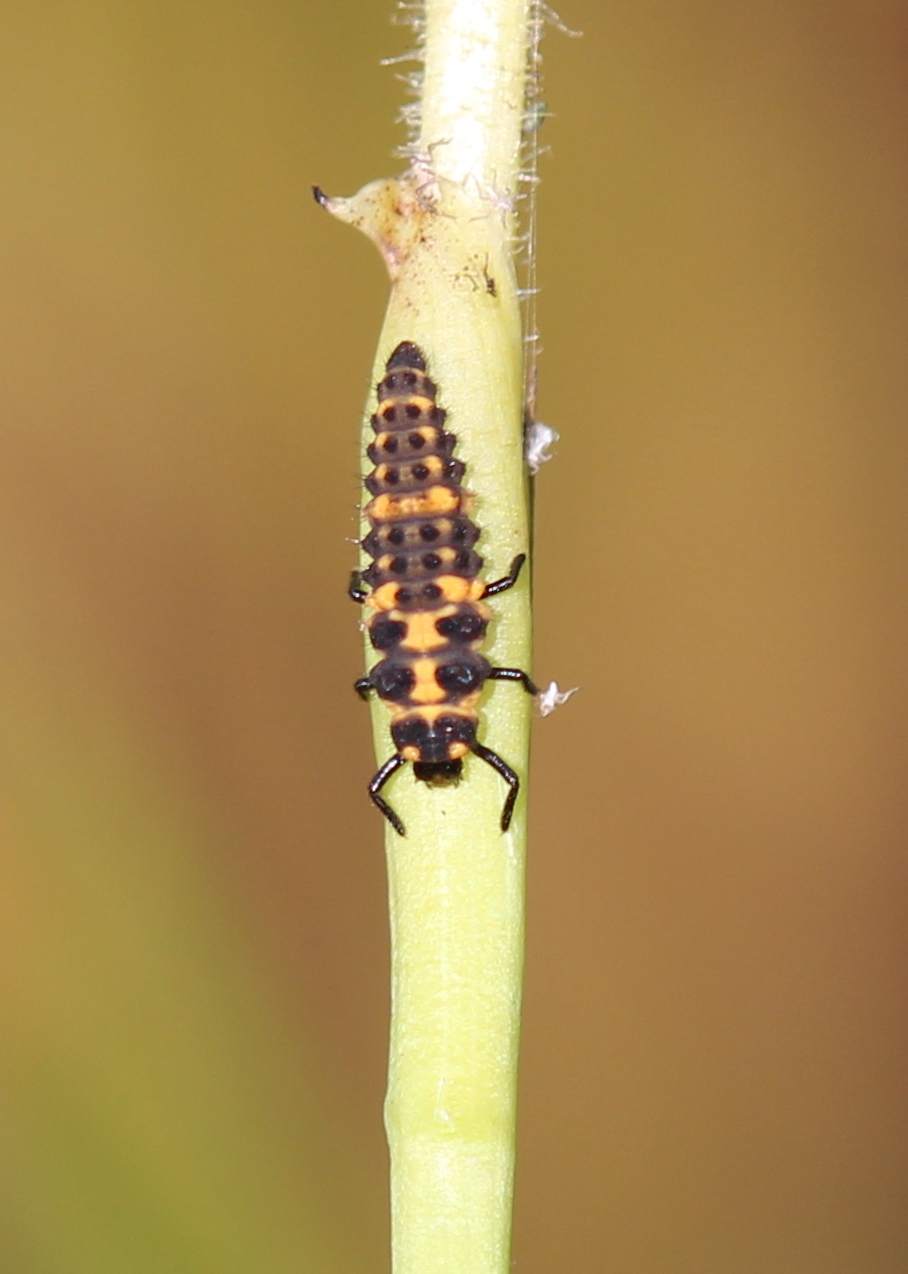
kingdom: Animalia
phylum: Arthropoda
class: Insecta
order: Coleoptera
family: Coccinellidae
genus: Coleomegilla
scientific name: Coleomegilla maculata
